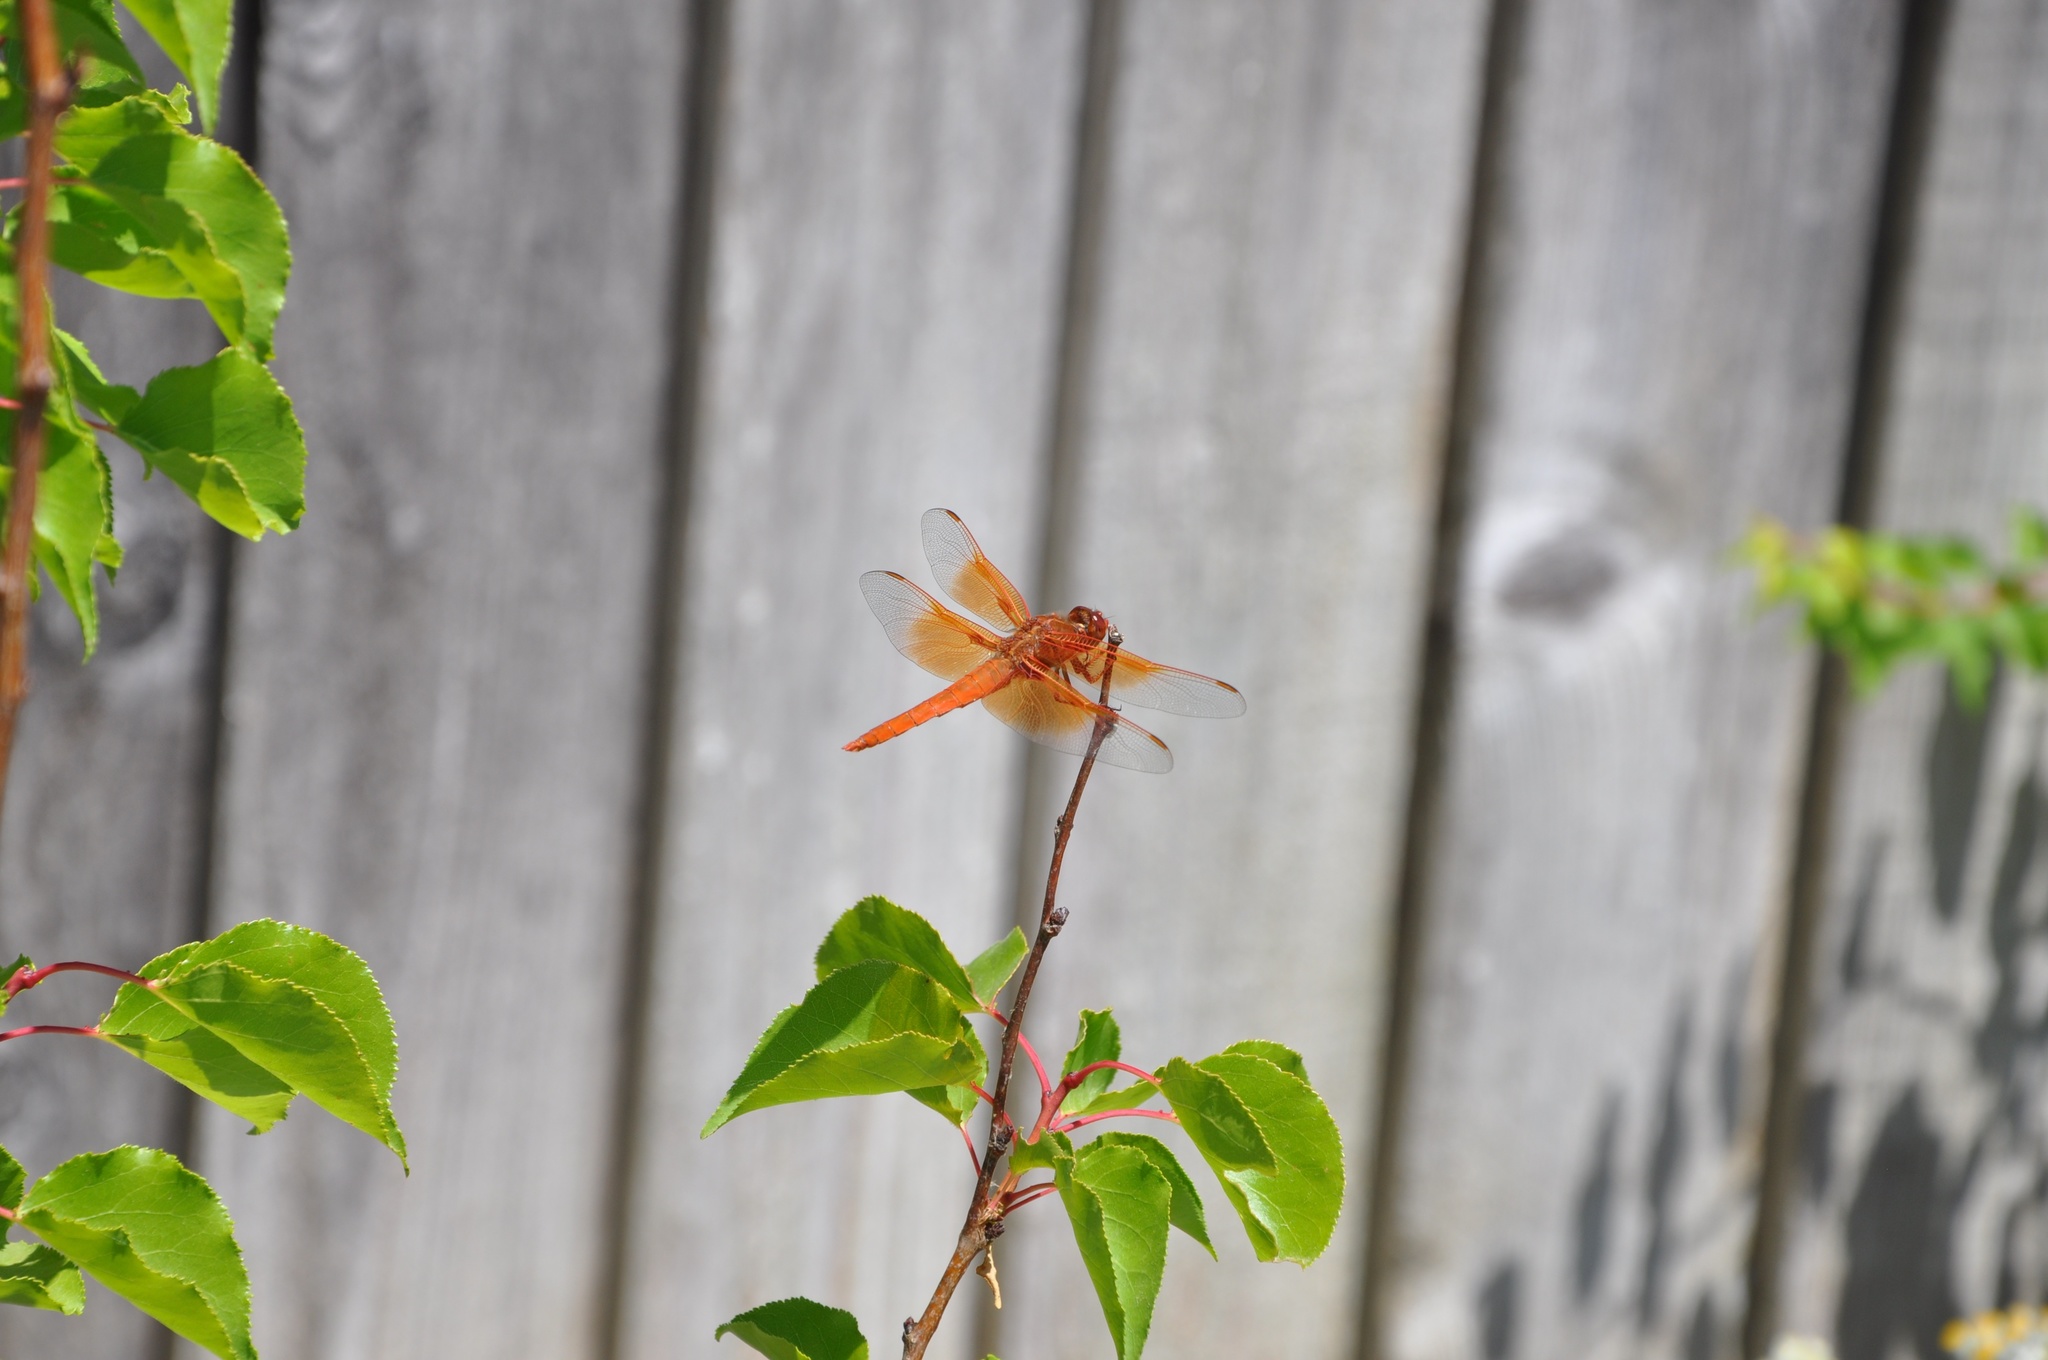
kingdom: Animalia
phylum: Arthropoda
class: Insecta
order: Odonata
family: Libellulidae
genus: Libellula
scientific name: Libellula saturata
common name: Flame skimmer
